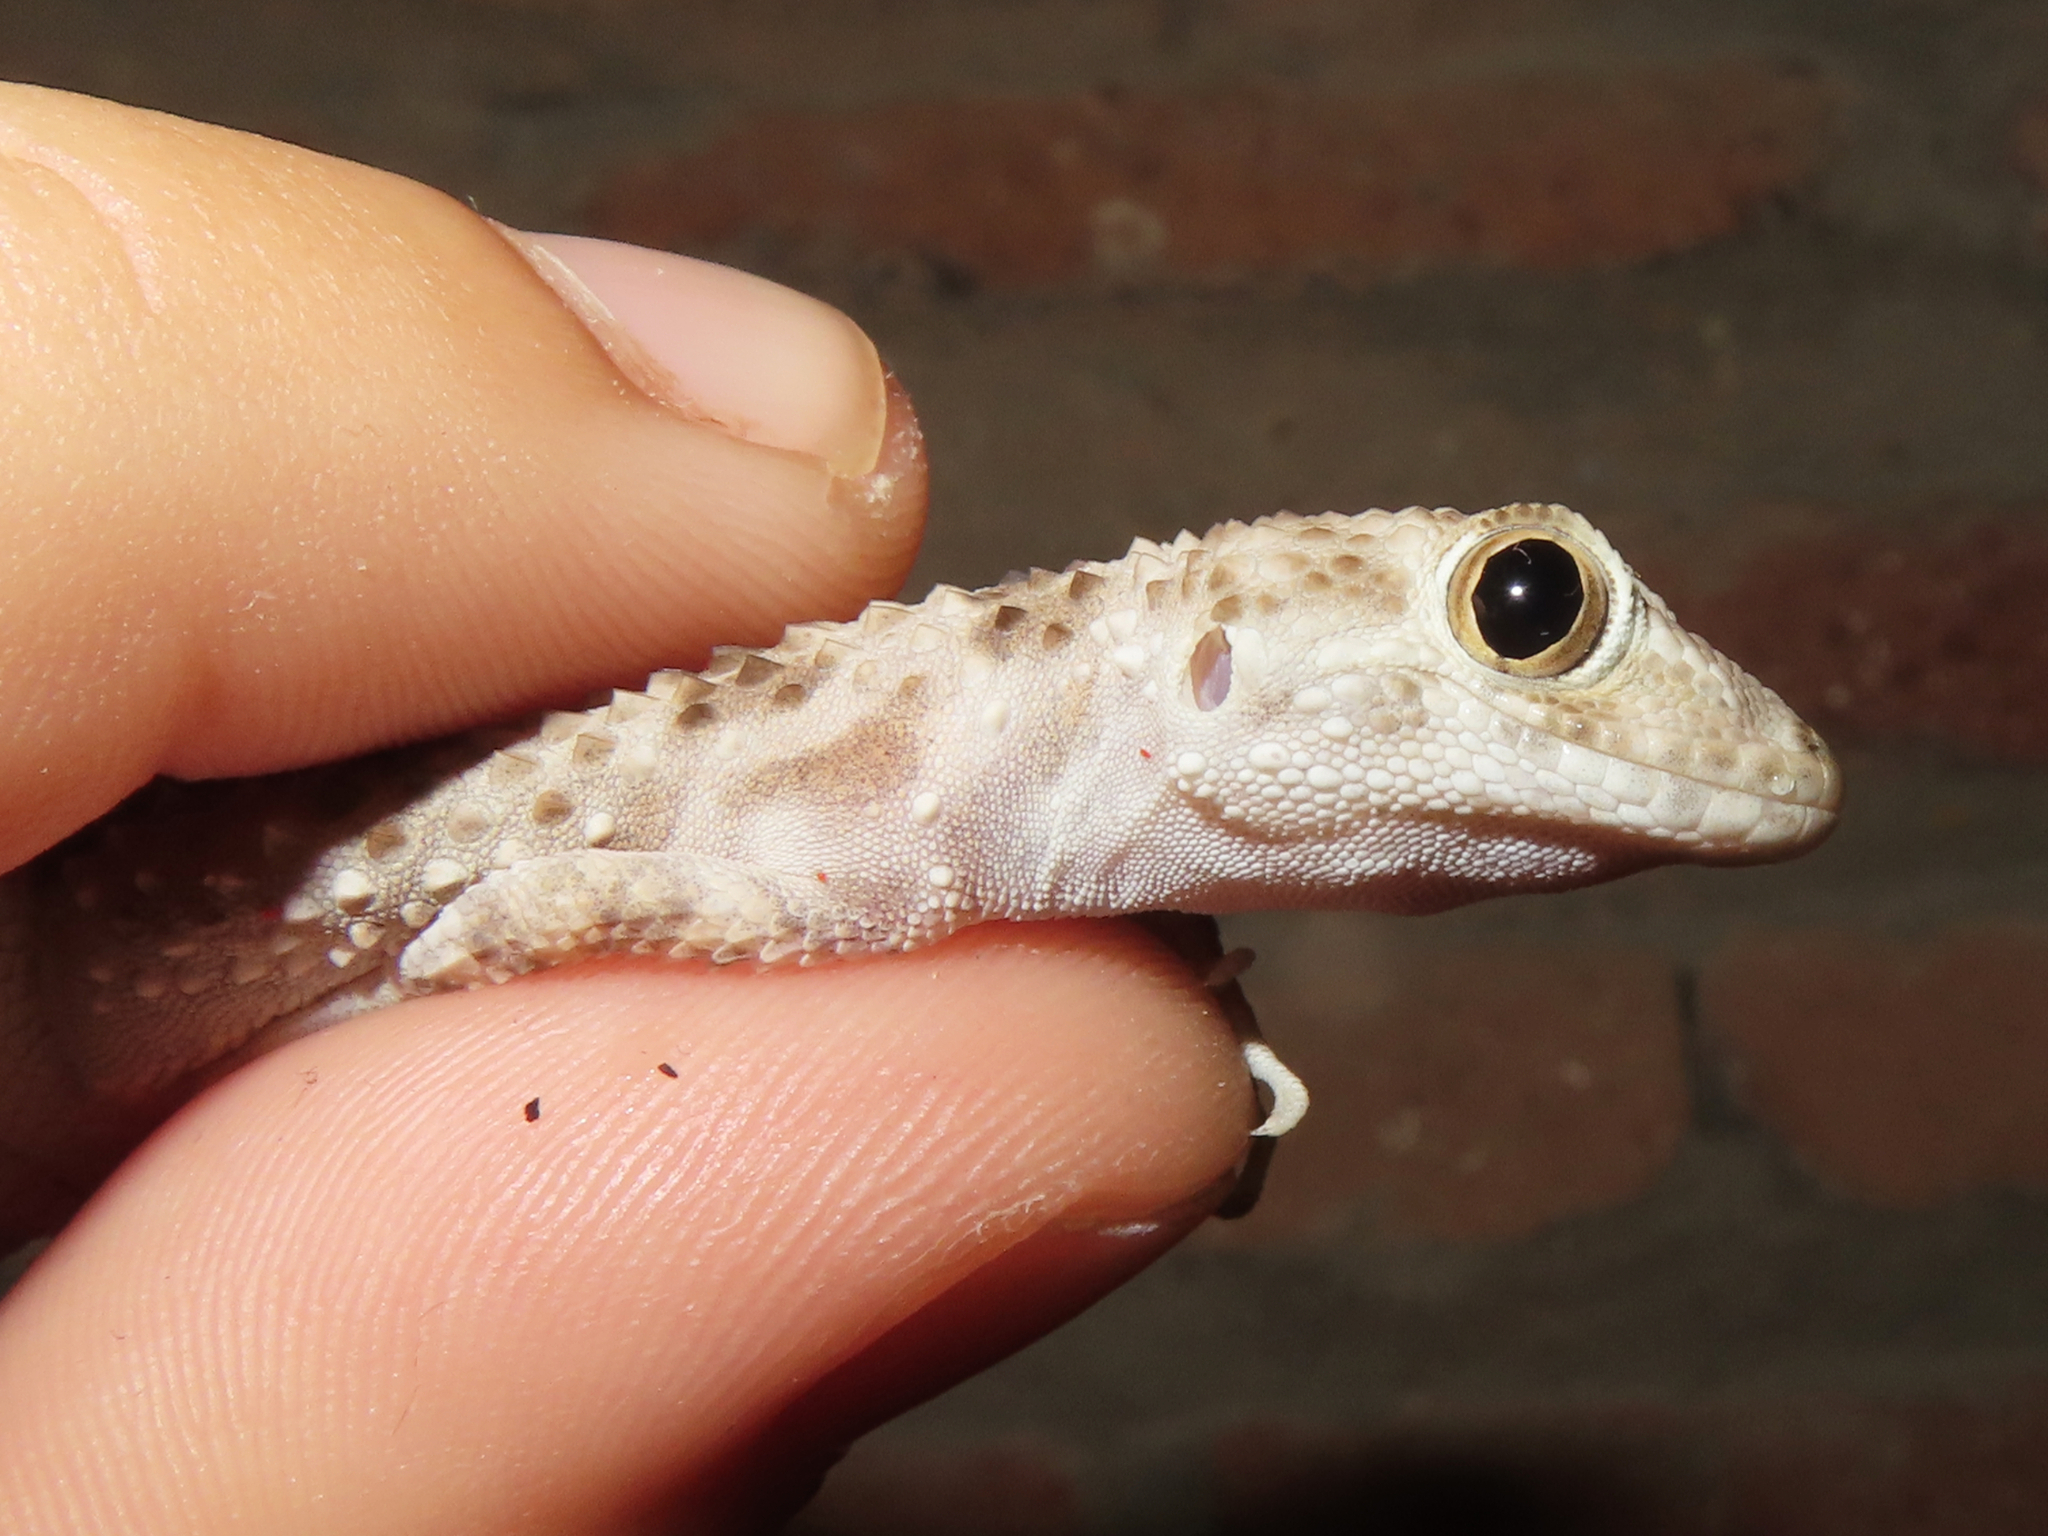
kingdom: Animalia
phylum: Chordata
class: Squamata
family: Gekkonidae
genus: Tenuidactylus
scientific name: Tenuidactylus caspius
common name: Caspian bent-toed gecko
